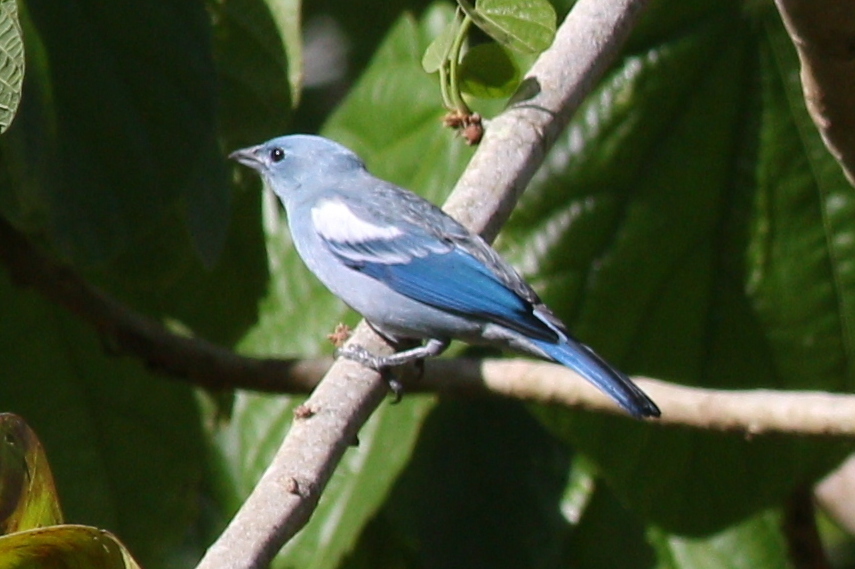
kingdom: Animalia
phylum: Chordata
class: Aves
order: Passeriformes
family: Thraupidae
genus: Thraupis
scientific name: Thraupis episcopus
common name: Blue-grey tanager
